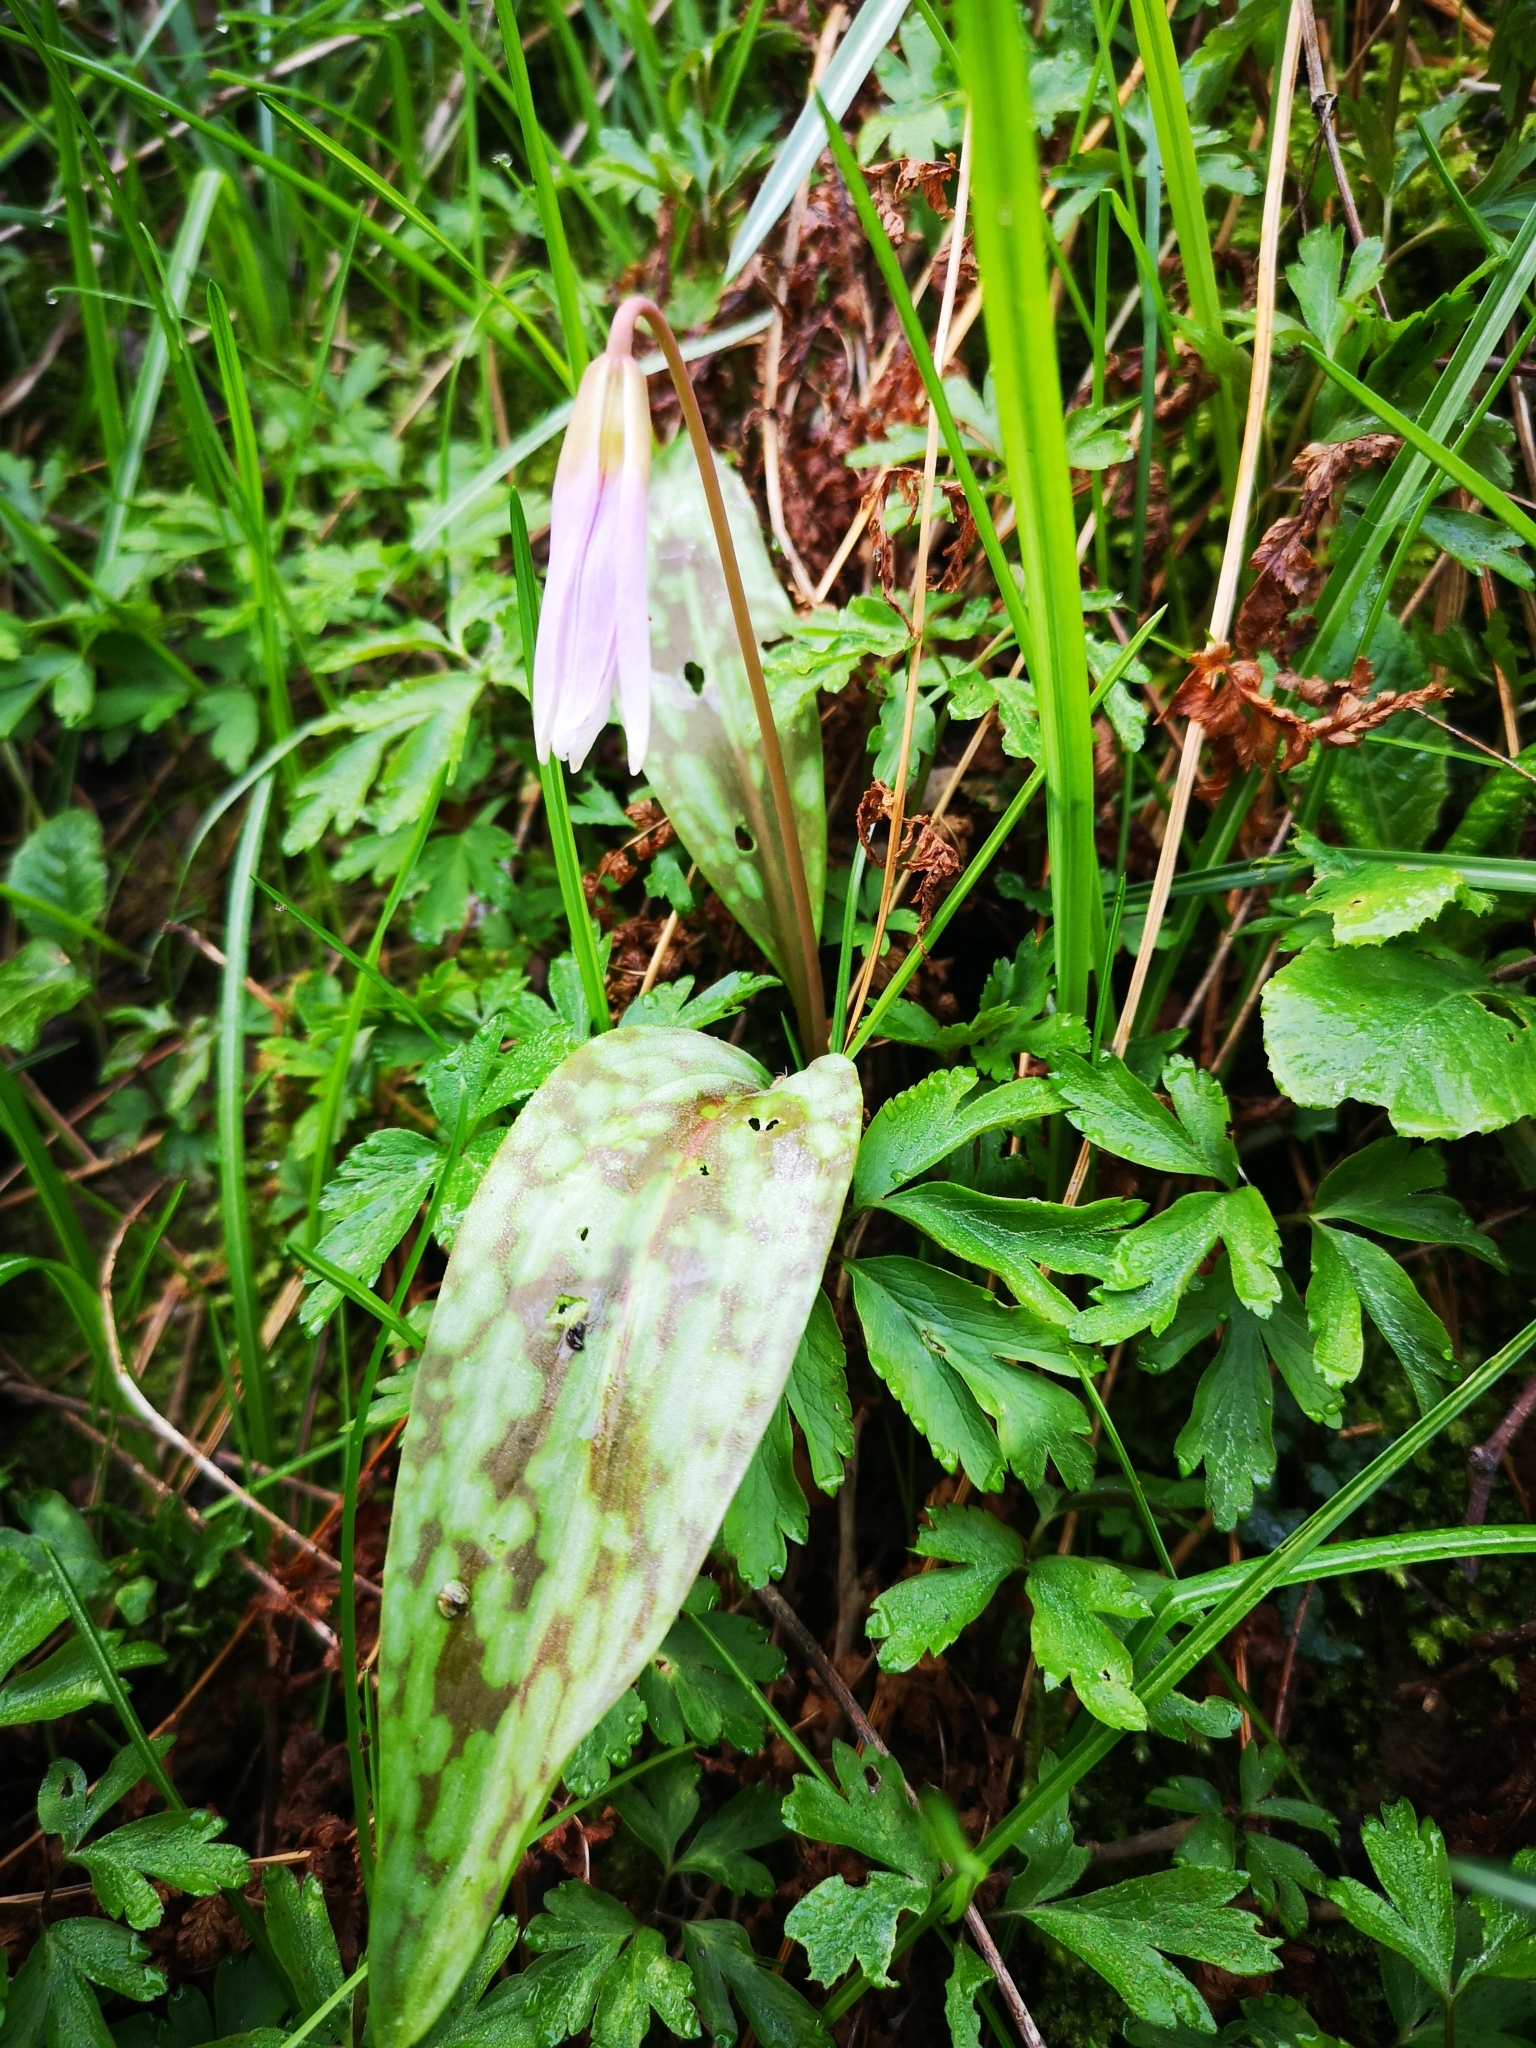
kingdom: Plantae
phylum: Tracheophyta
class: Liliopsida
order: Liliales
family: Liliaceae
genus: Erythronium
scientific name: Erythronium dens-canis
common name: Dog's-tooth-violet
